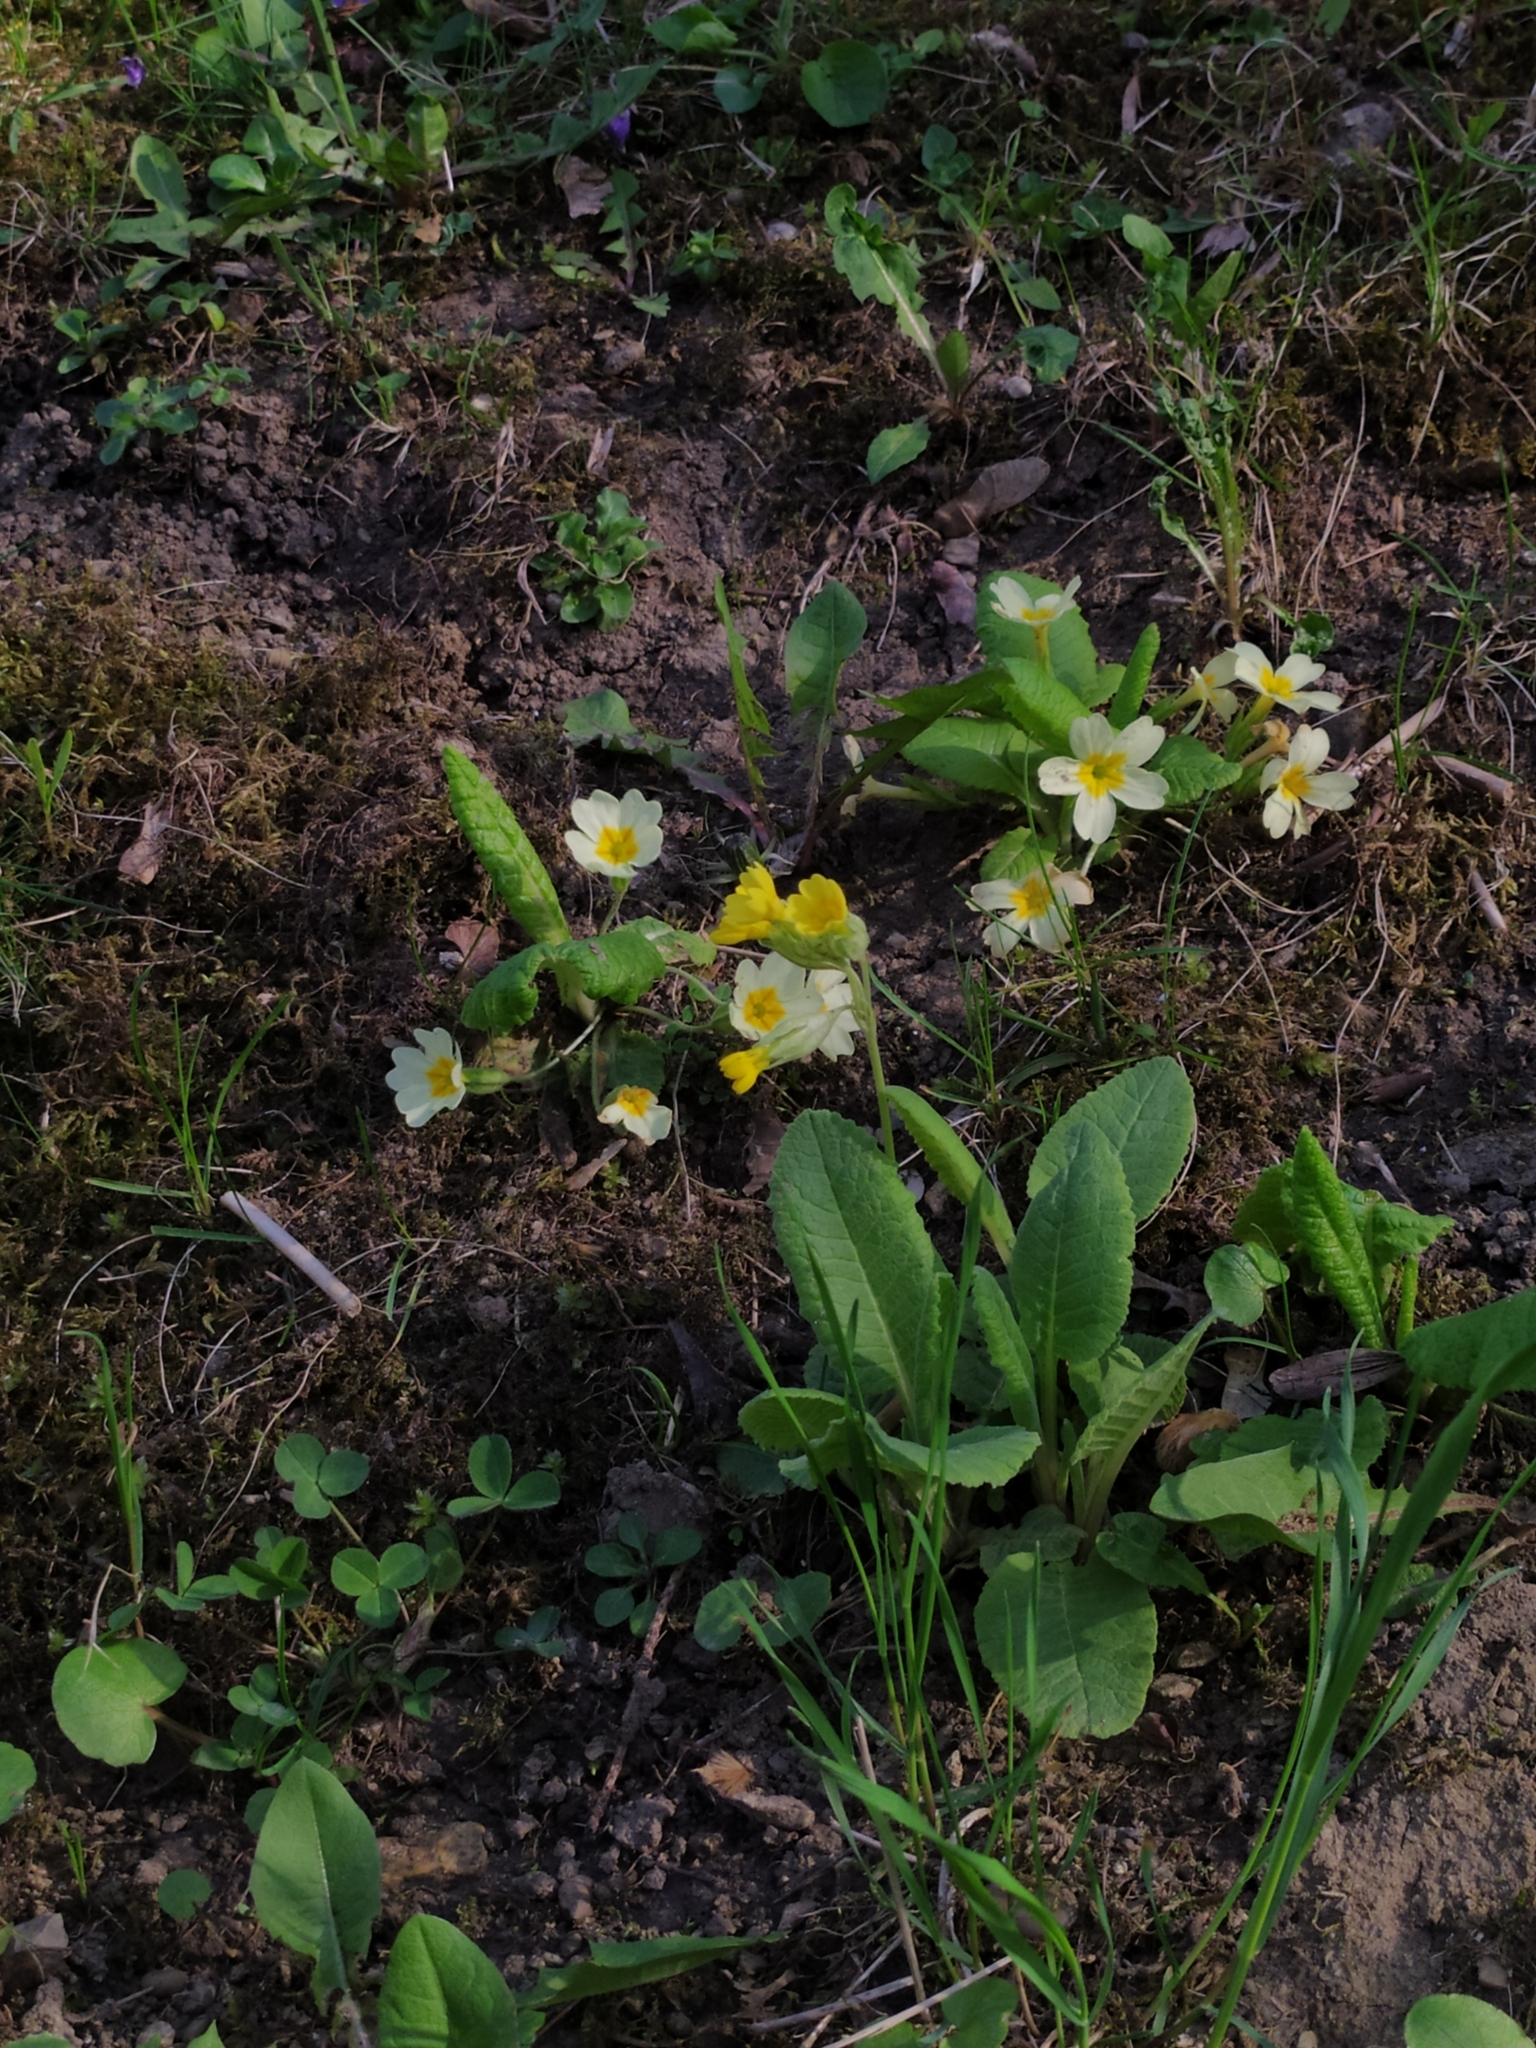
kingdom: Plantae
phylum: Tracheophyta
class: Magnoliopsida
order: Ericales
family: Primulaceae
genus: Primula
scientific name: Primula veris
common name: Cowslip
